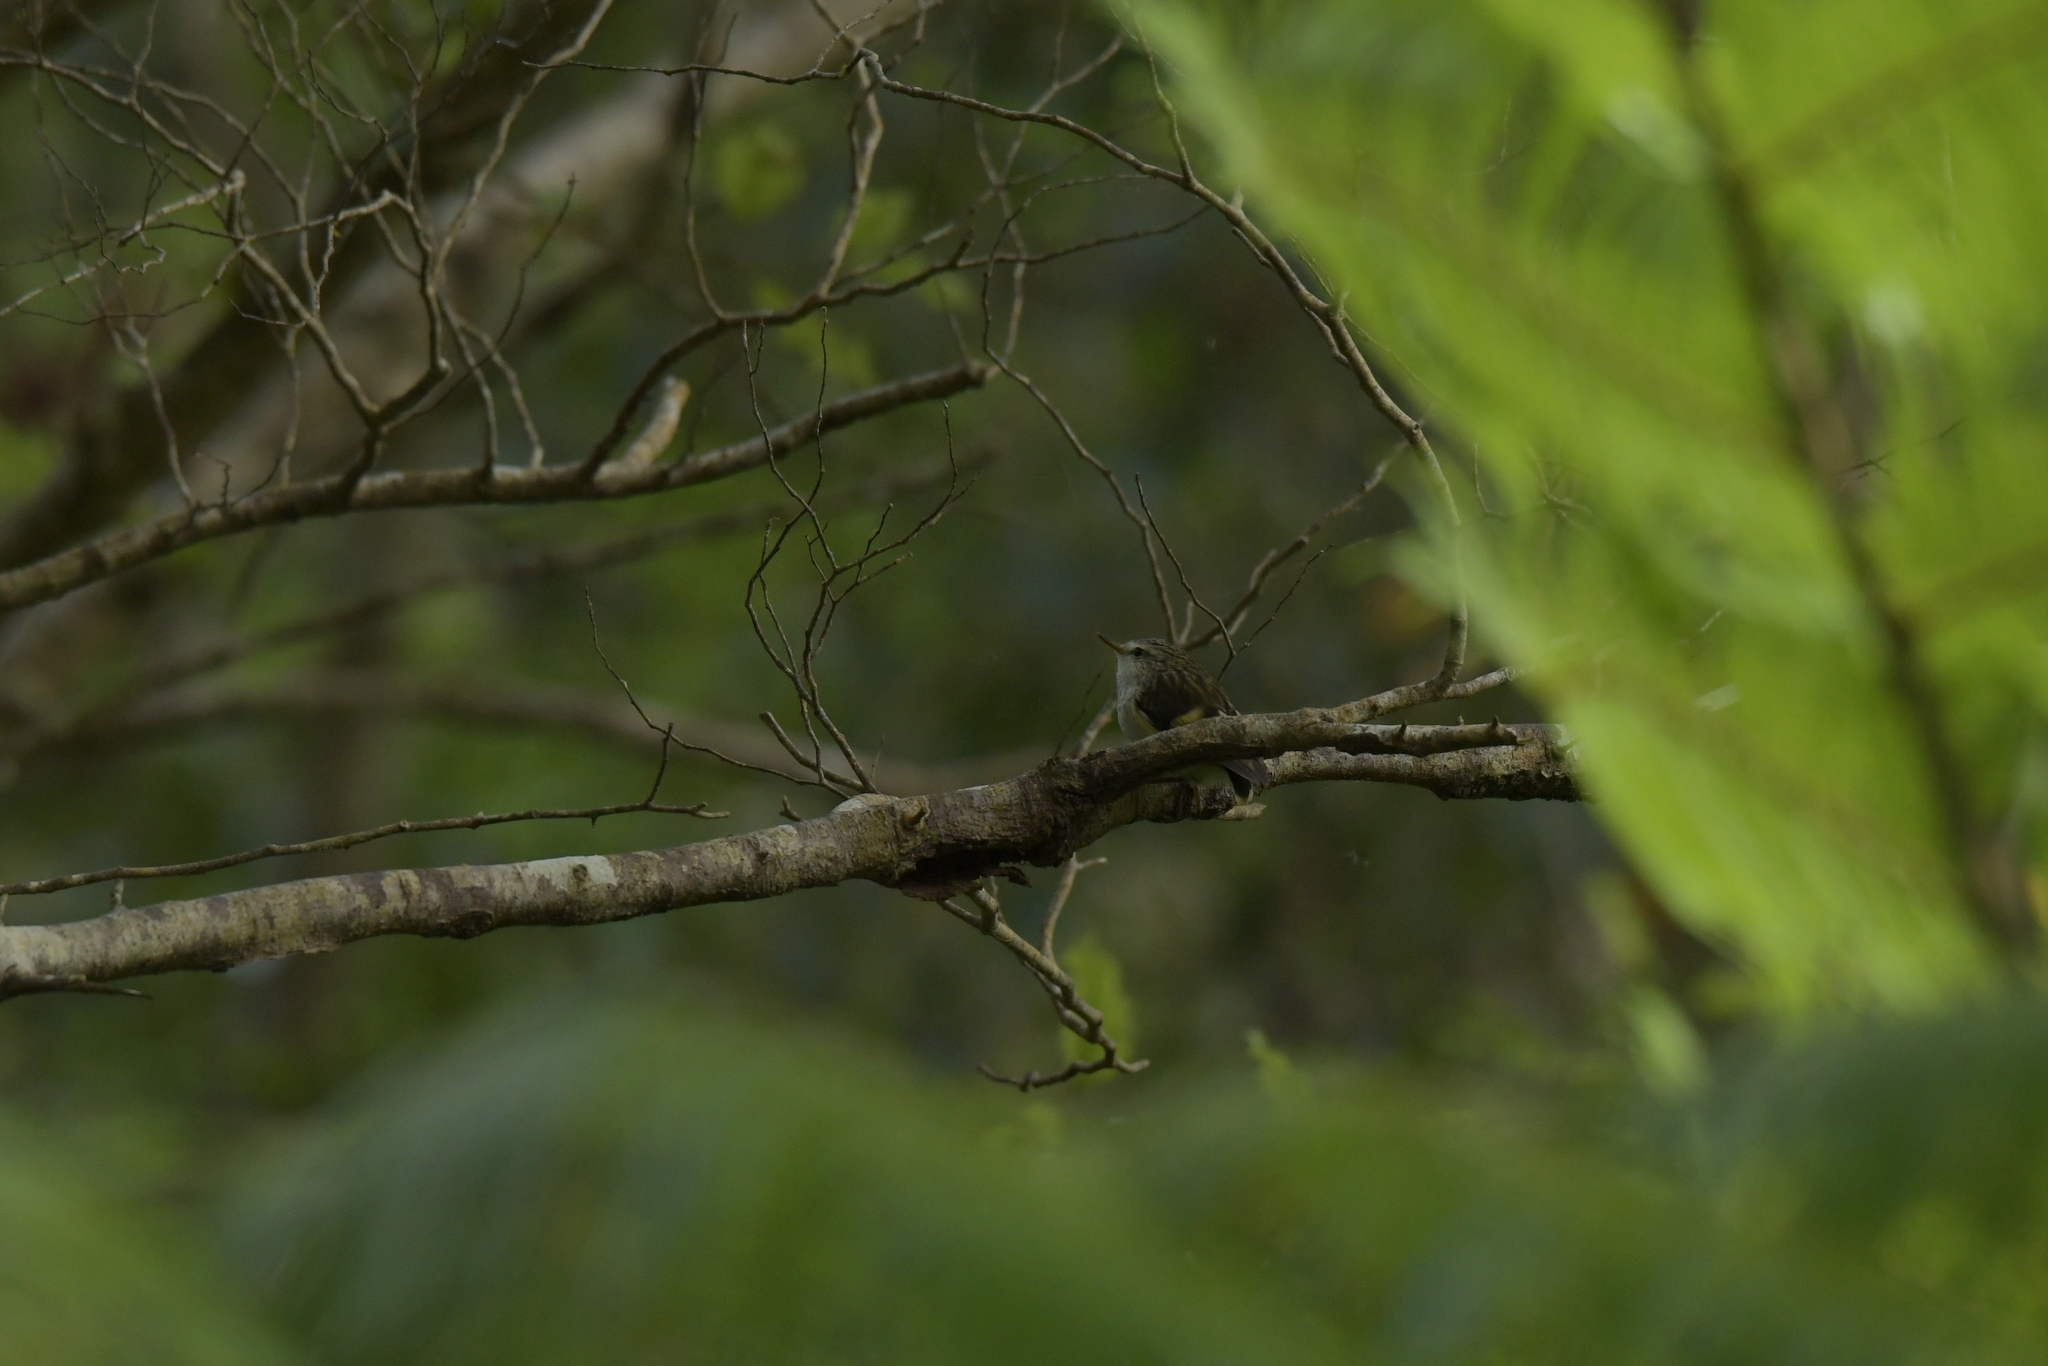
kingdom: Animalia
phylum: Chordata
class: Aves
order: Passeriformes
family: Acanthisittidae
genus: Acanthisitta
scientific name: Acanthisitta chloris
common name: Rifleman
